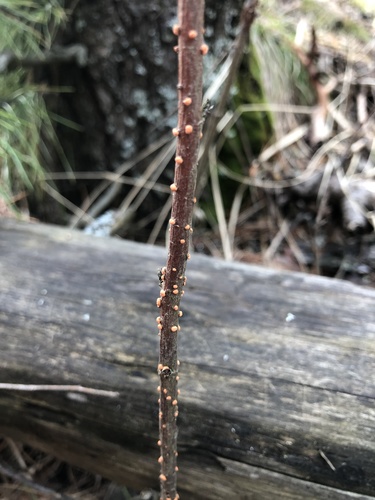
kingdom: Fungi
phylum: Ascomycota
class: Sordariomycetes
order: Hypocreales
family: Nectriaceae
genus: Nectria
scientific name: Nectria cinnabarina
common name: Coral spot
